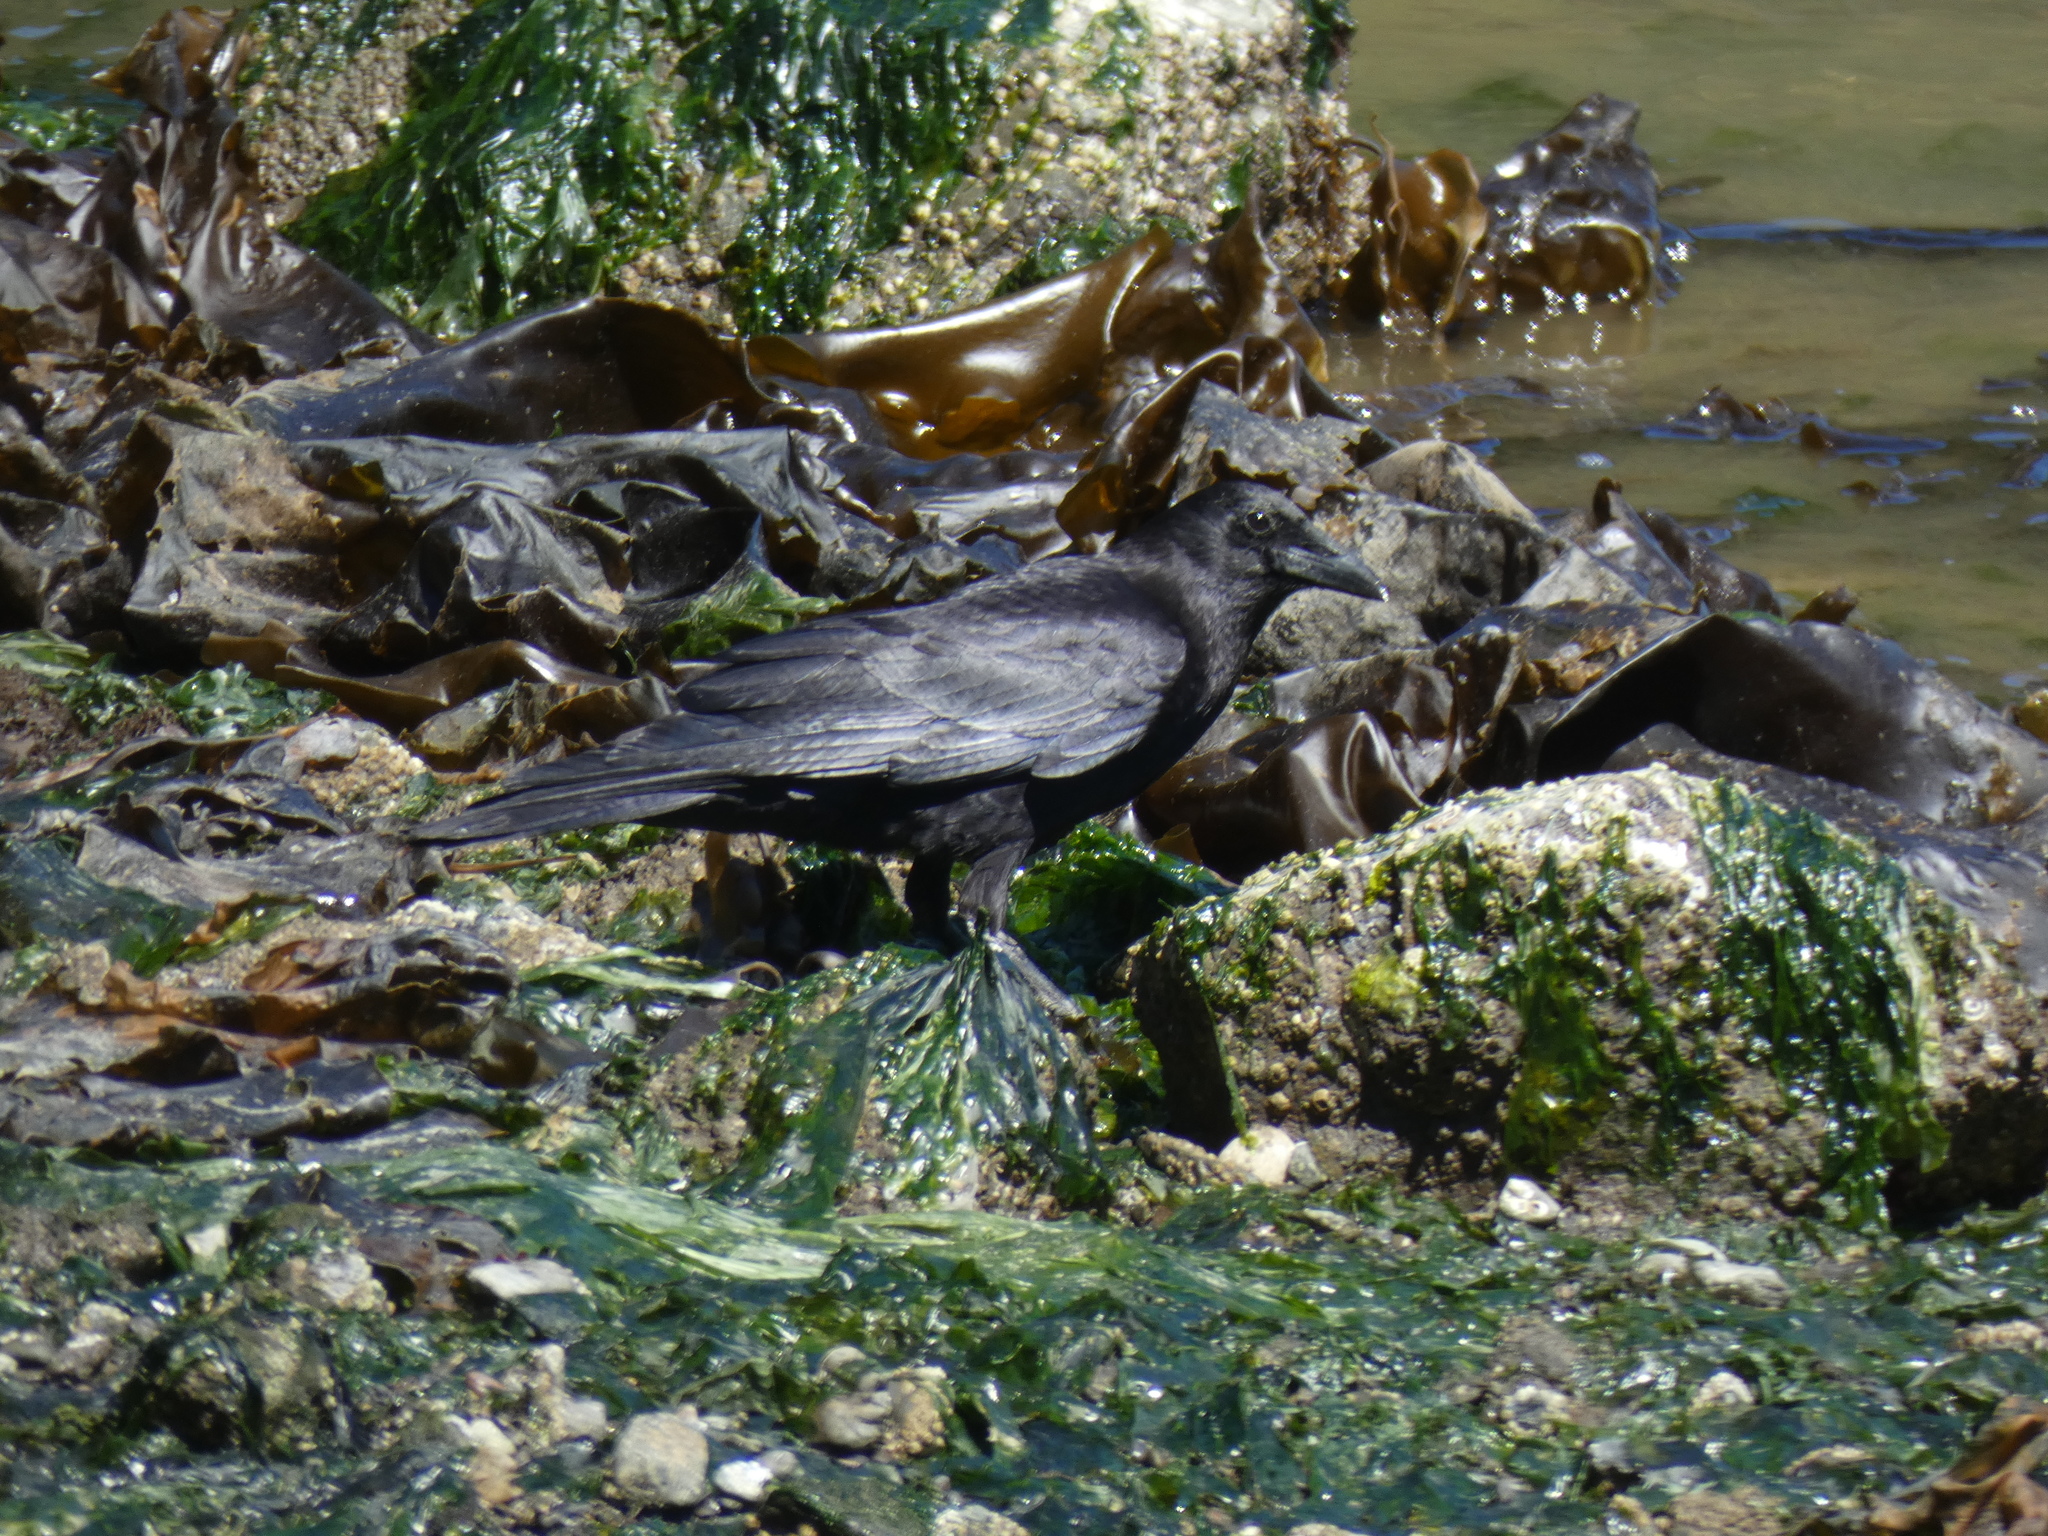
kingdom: Animalia
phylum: Chordata
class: Aves
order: Passeriformes
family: Corvidae
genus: Corvus
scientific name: Corvus brachyrhynchos
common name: American crow
